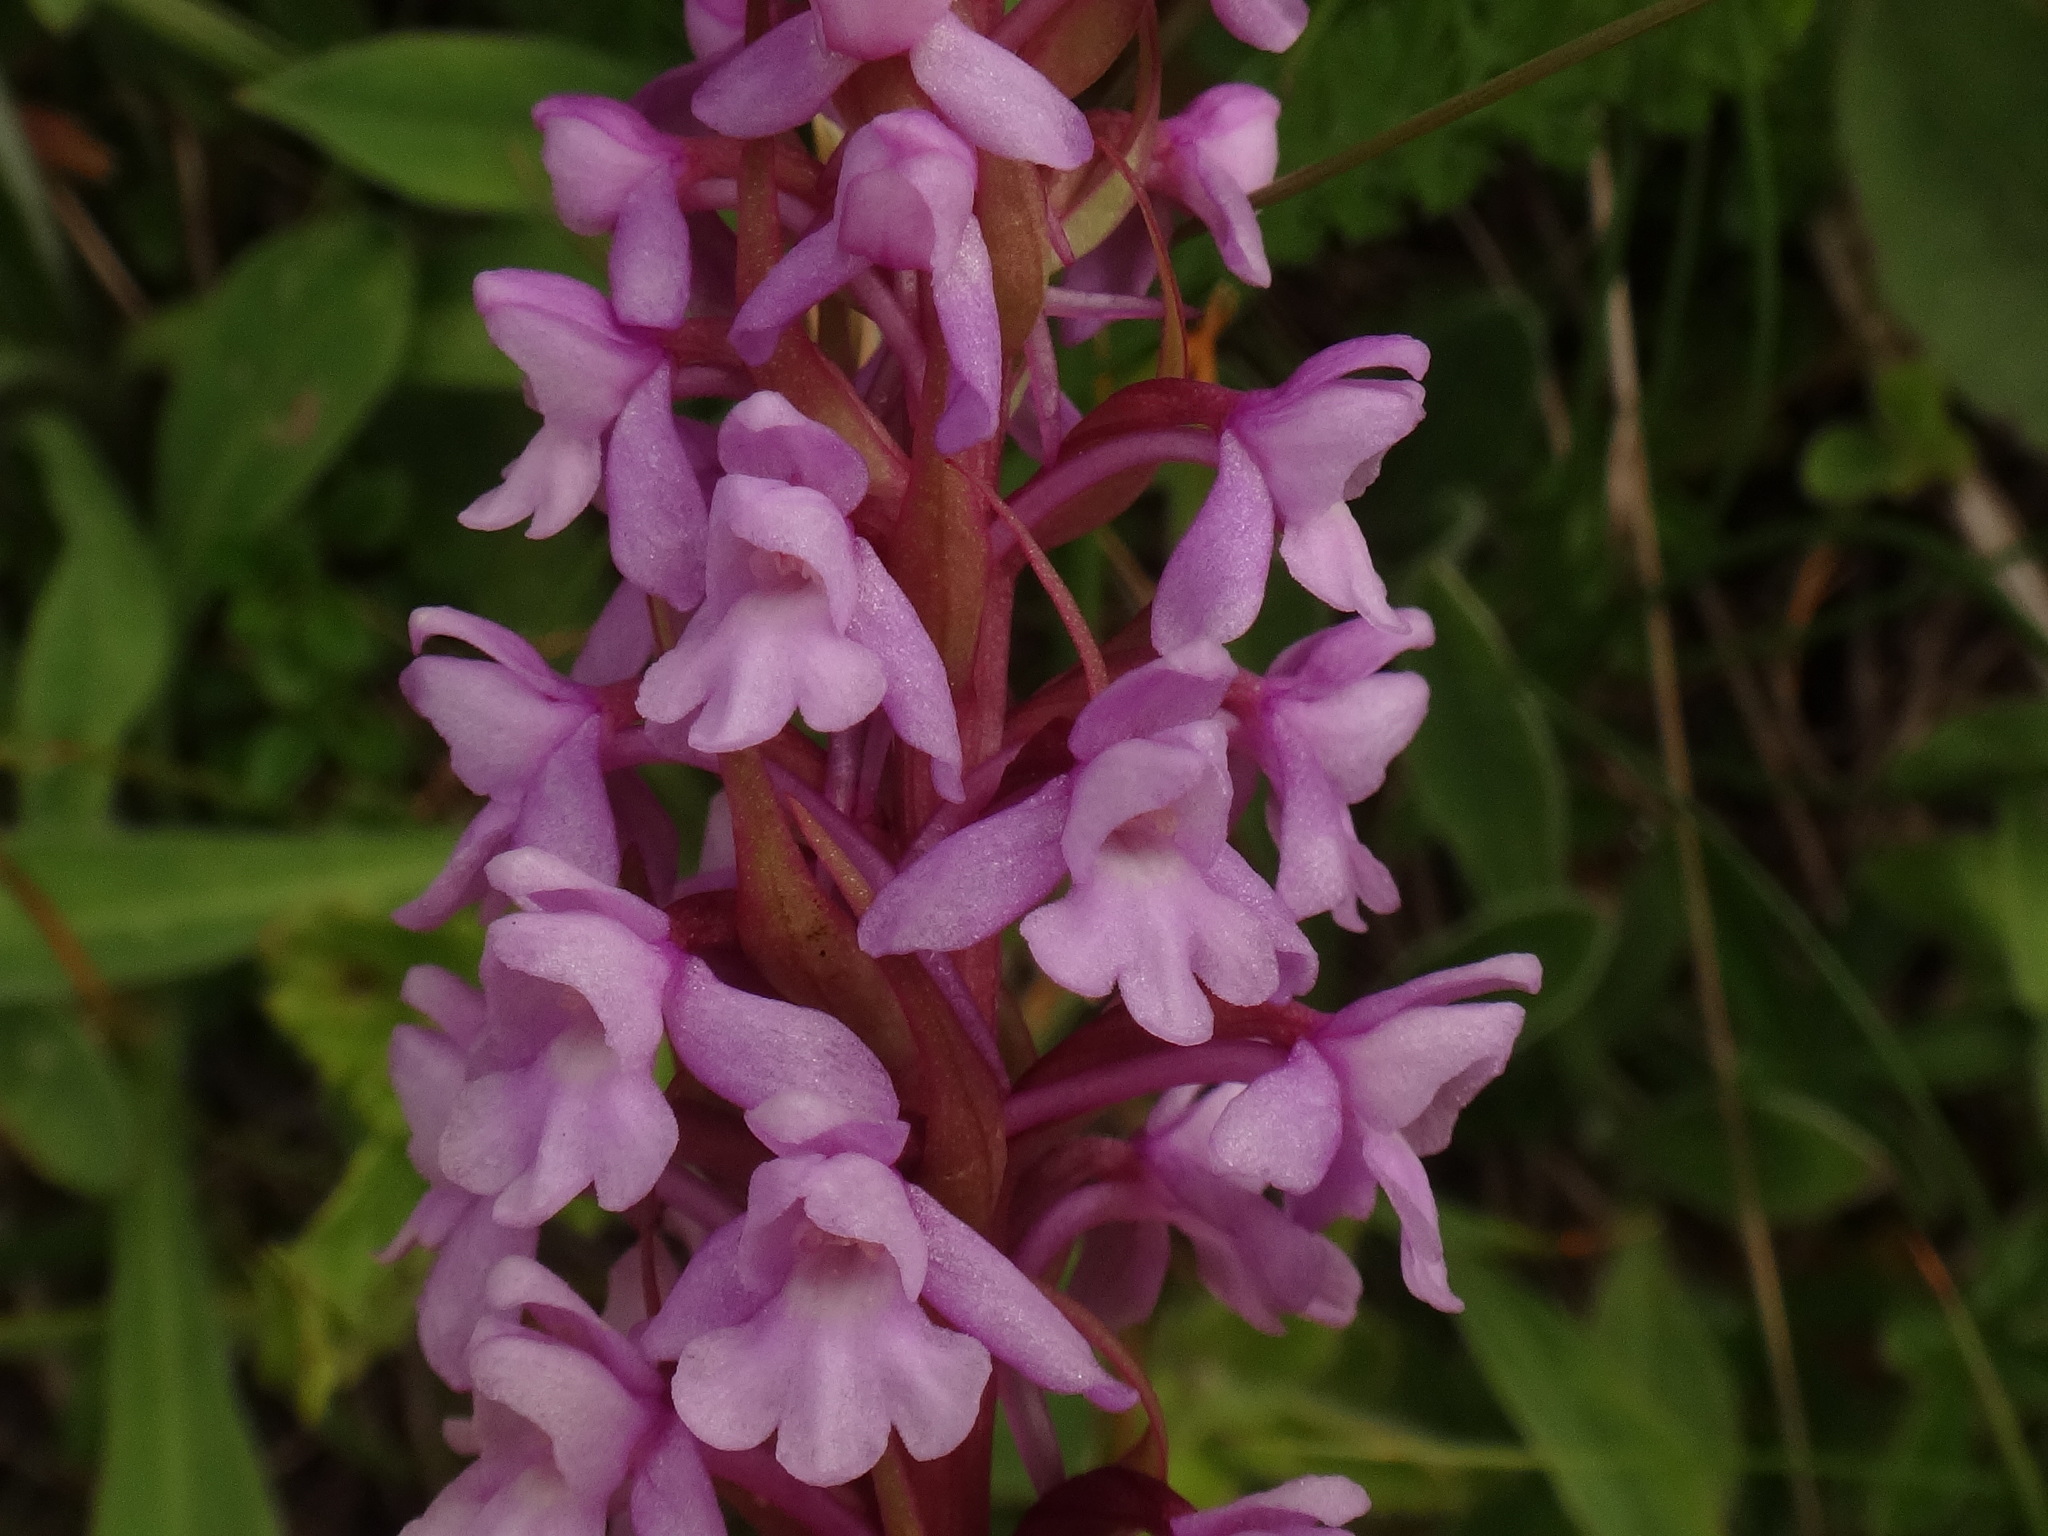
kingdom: Plantae
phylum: Tracheophyta
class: Liliopsida
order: Asparagales
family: Orchidaceae
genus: Gymnadenia
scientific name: Gymnadenia conopsea
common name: Fragrant orchid
